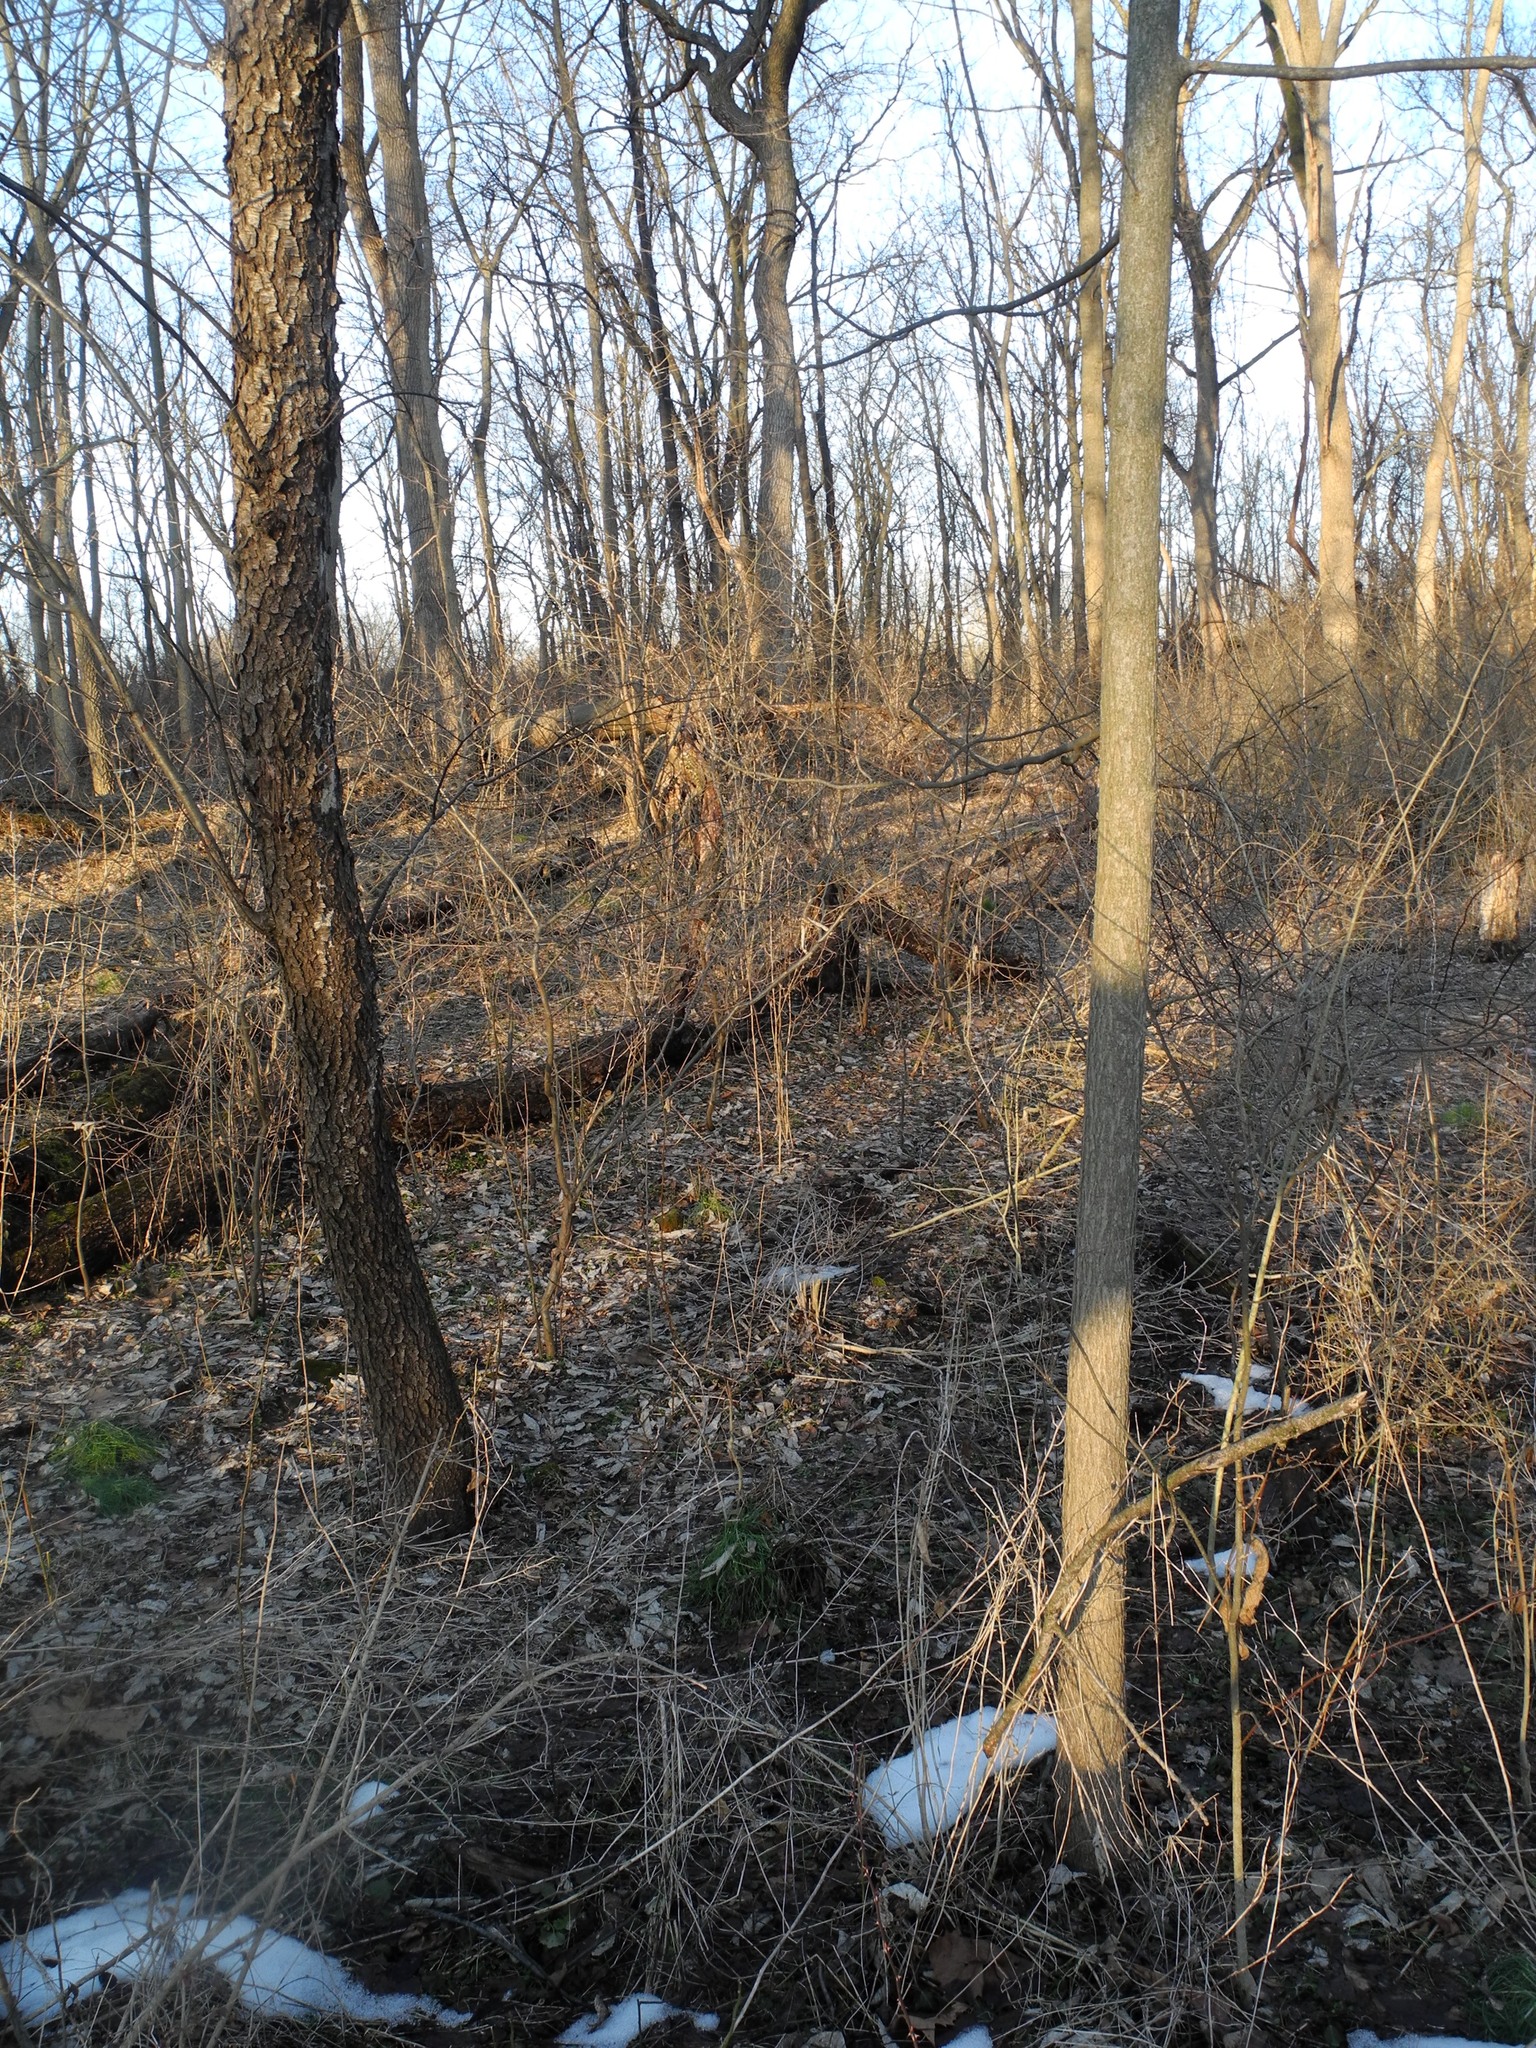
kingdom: Plantae
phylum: Tracheophyta
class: Magnoliopsida
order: Rosales
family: Rosaceae
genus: Prunus
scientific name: Prunus serotina
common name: Black cherry
